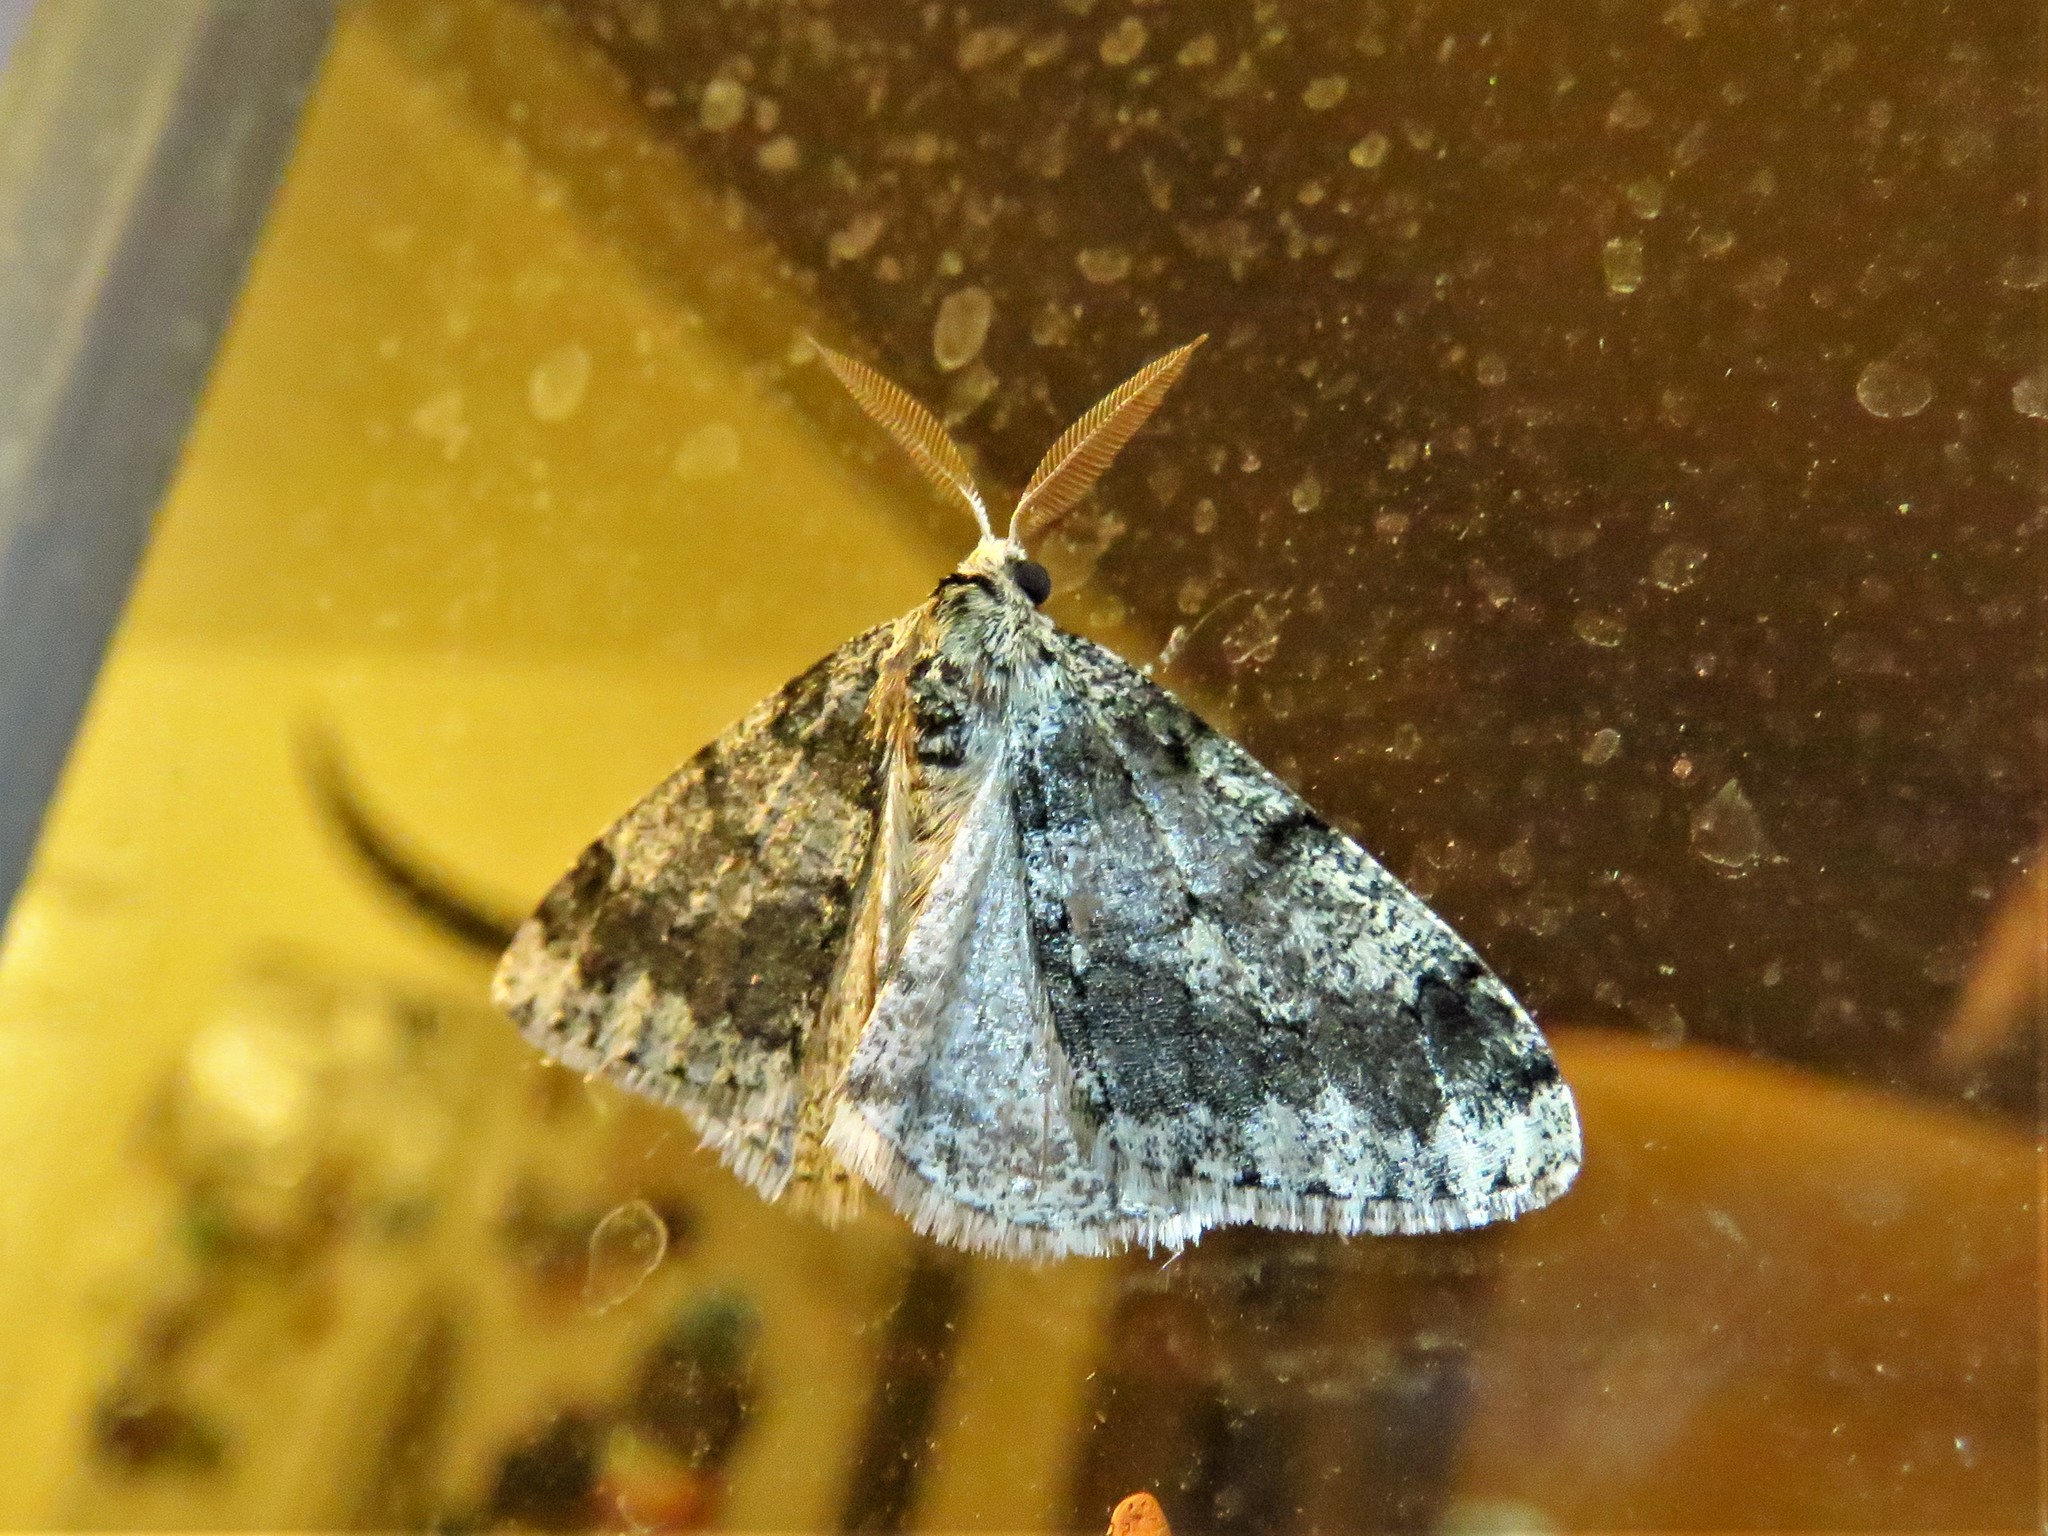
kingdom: Animalia
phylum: Arthropoda
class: Insecta
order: Lepidoptera
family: Geometridae
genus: Phigalia
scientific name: Phigalia titea
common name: Spiny looper
